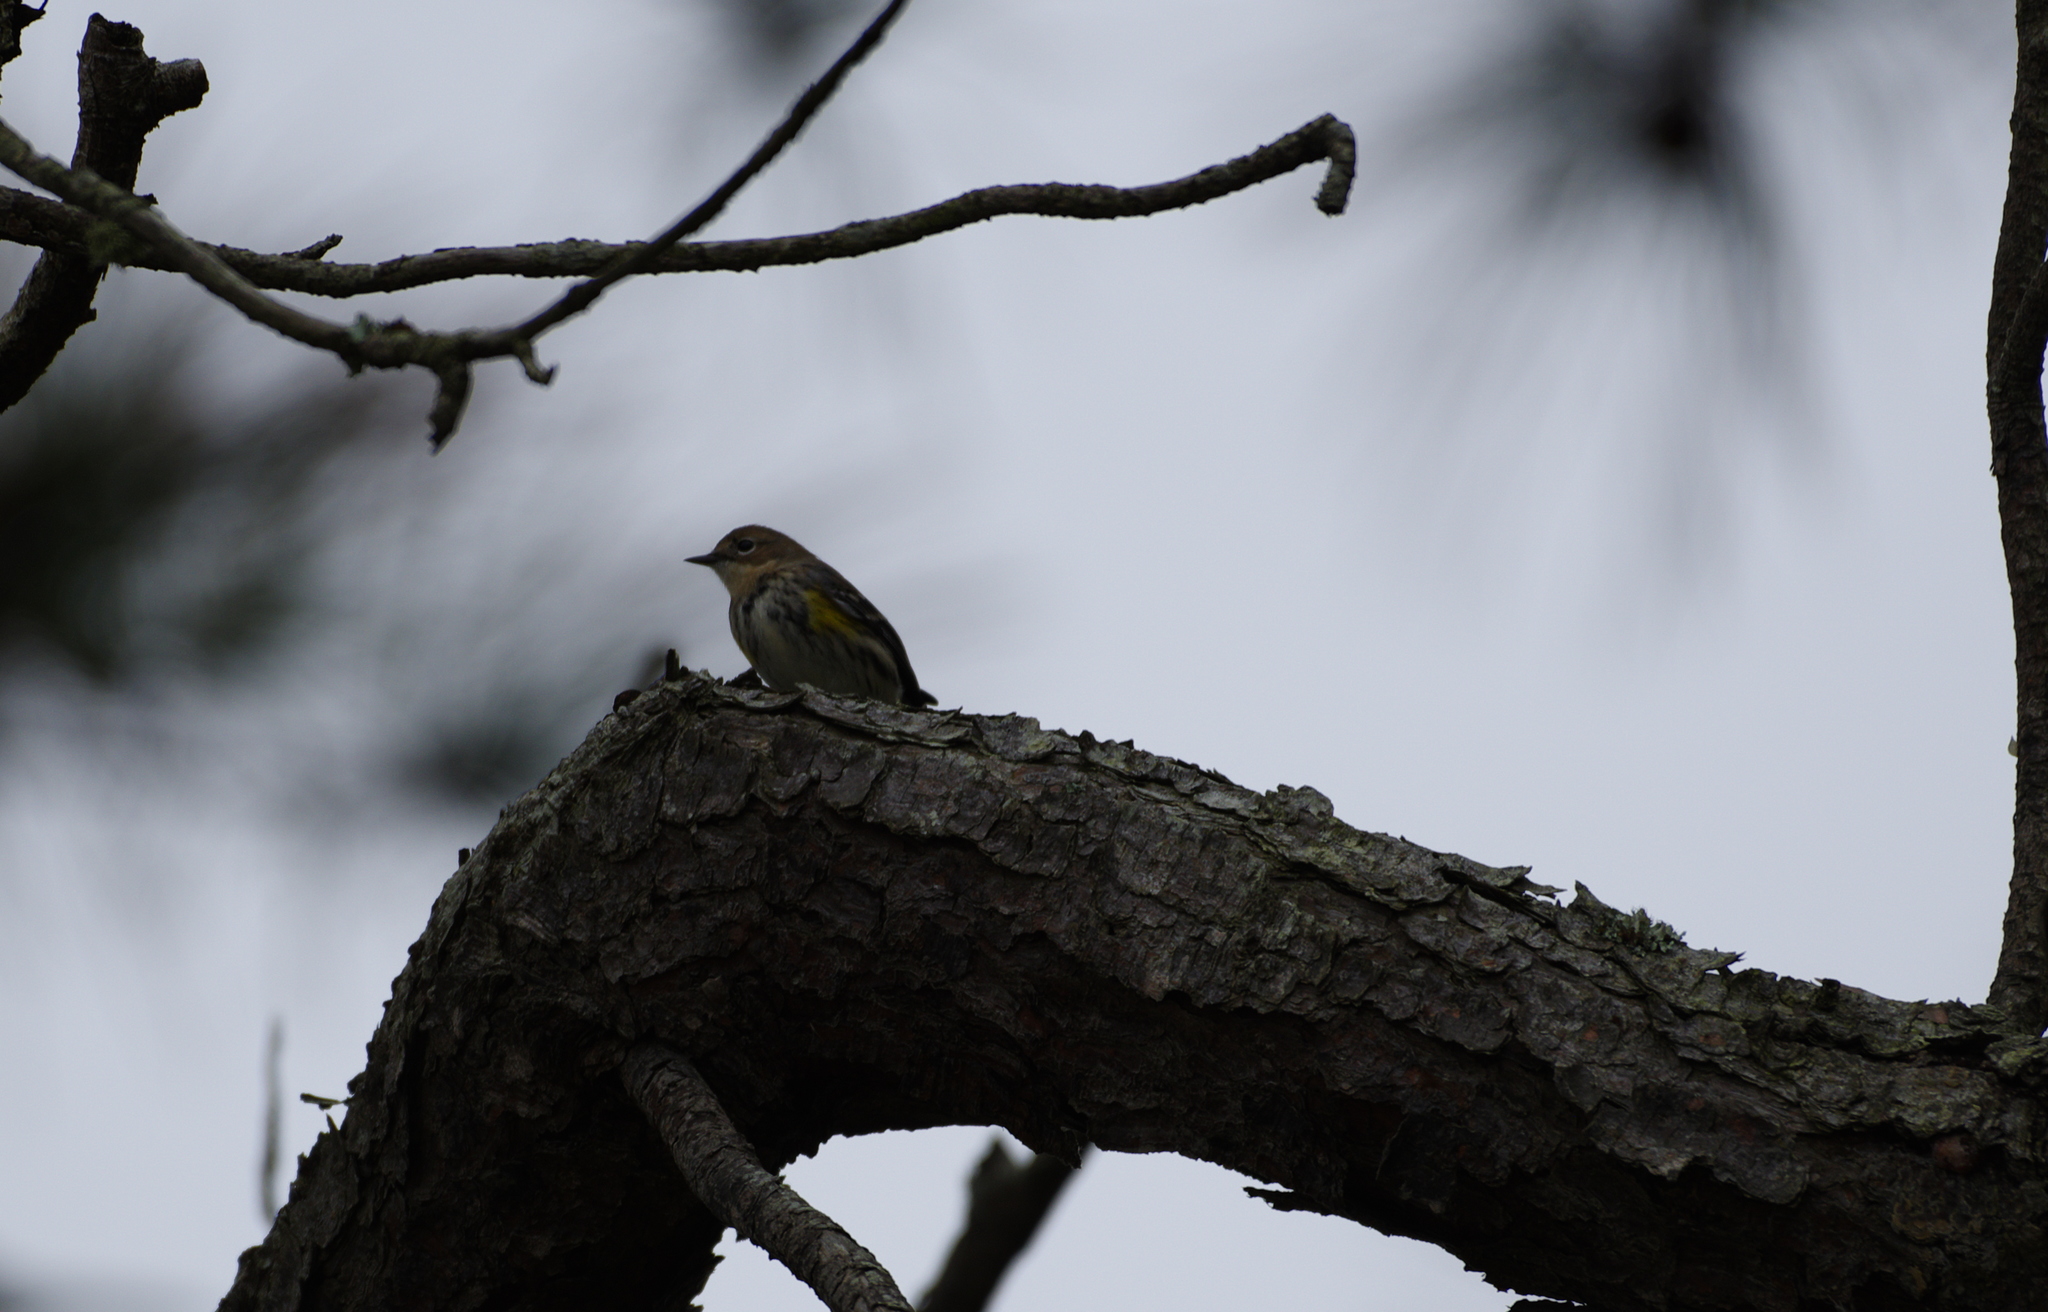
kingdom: Animalia
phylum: Chordata
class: Aves
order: Passeriformes
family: Parulidae
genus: Setophaga
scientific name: Setophaga coronata
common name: Myrtle warbler
